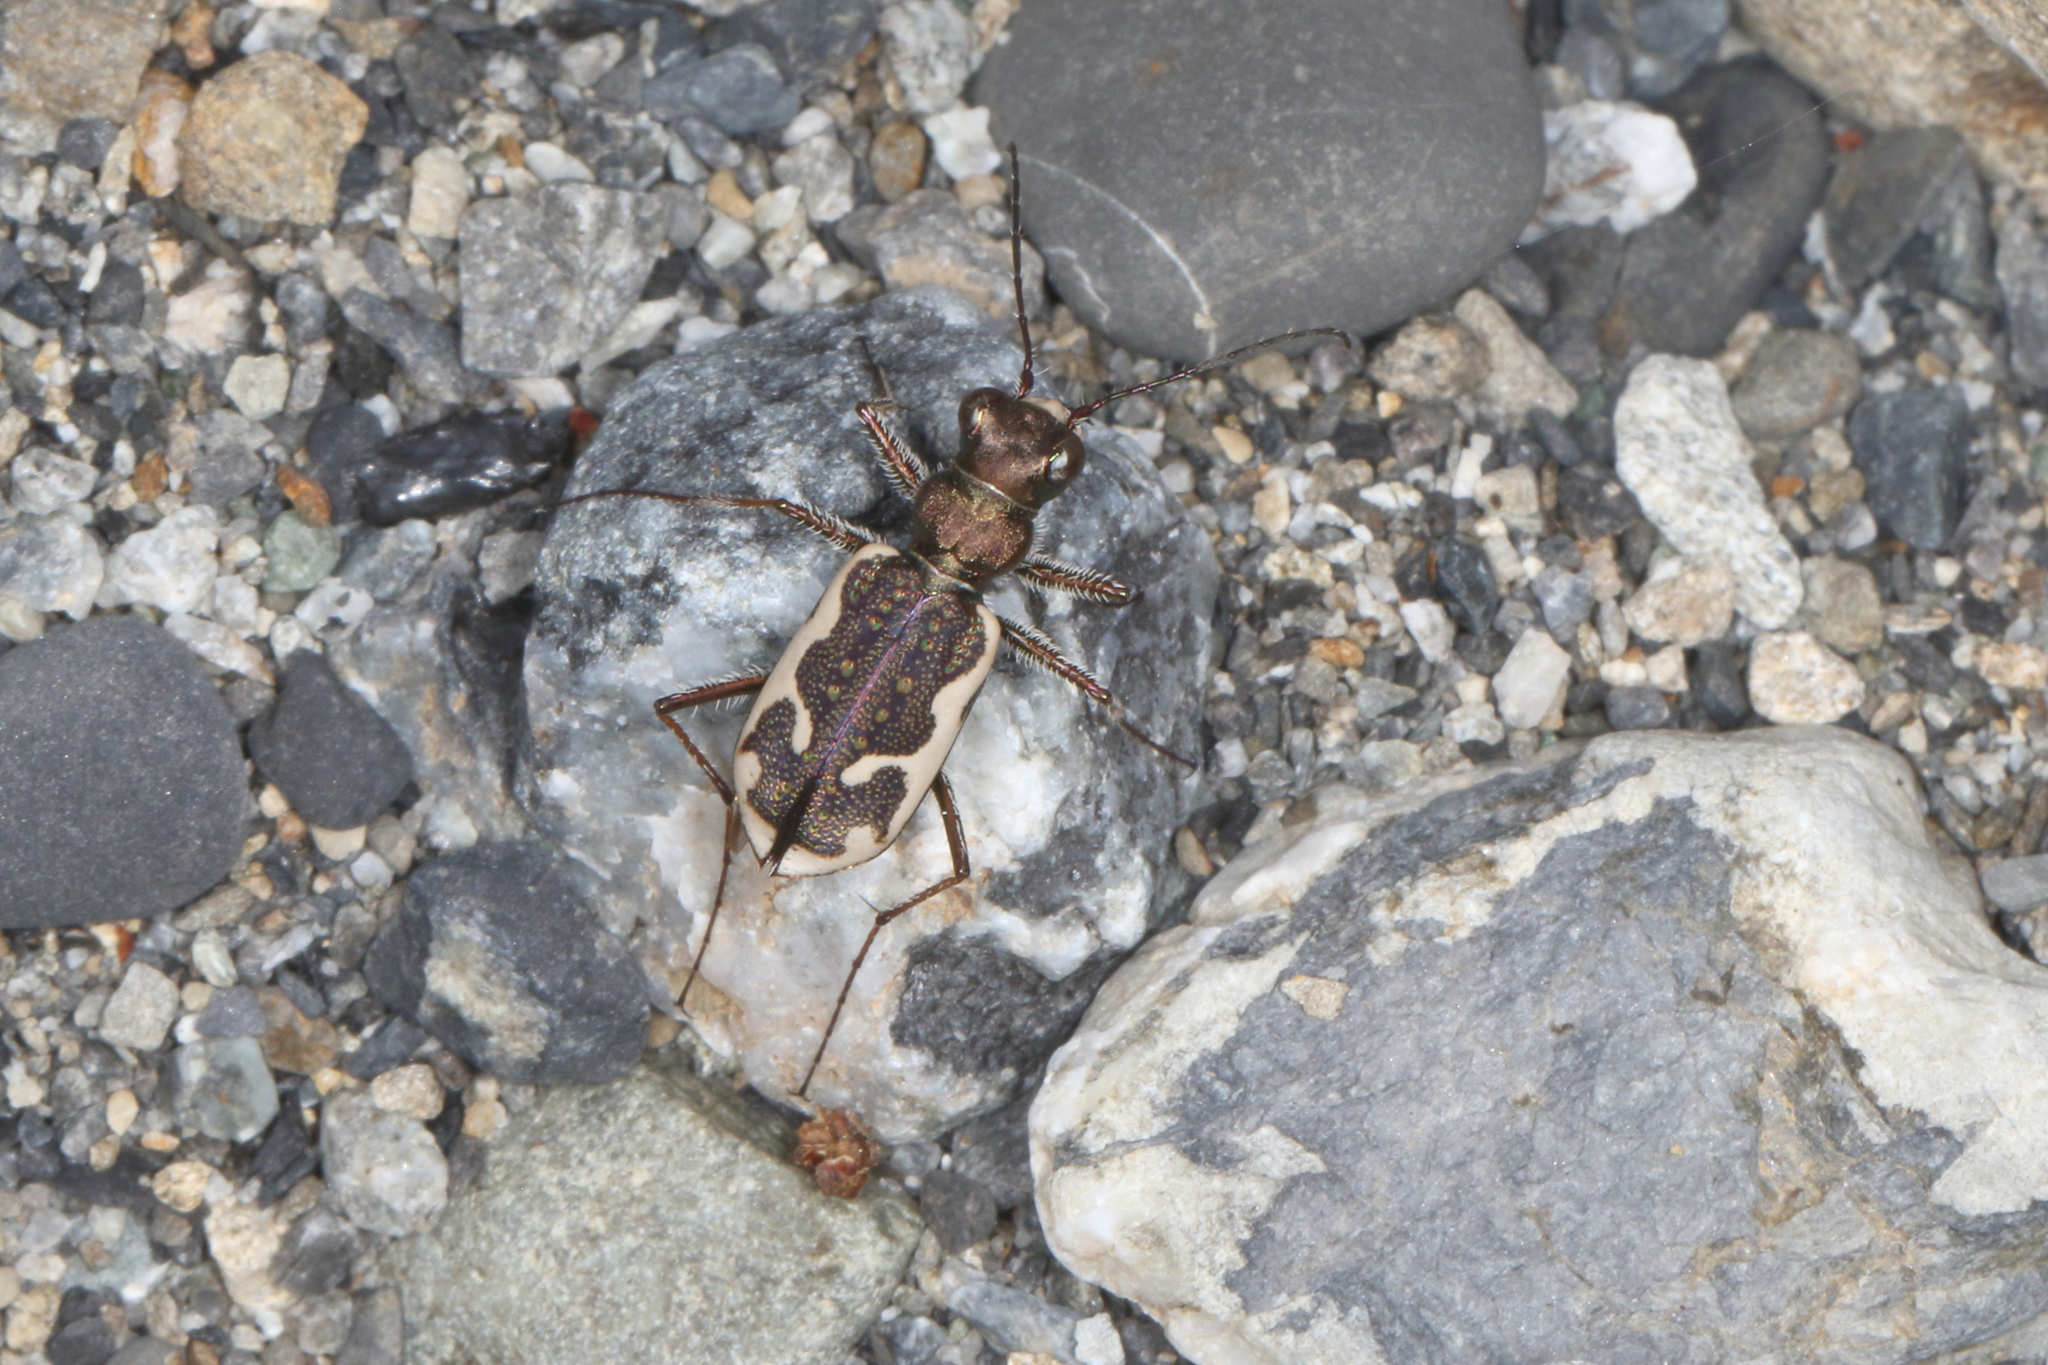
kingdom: Animalia
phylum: Arthropoda
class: Insecta
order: Coleoptera
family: Carabidae
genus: Neocicindela
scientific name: Neocicindela tuberculata
